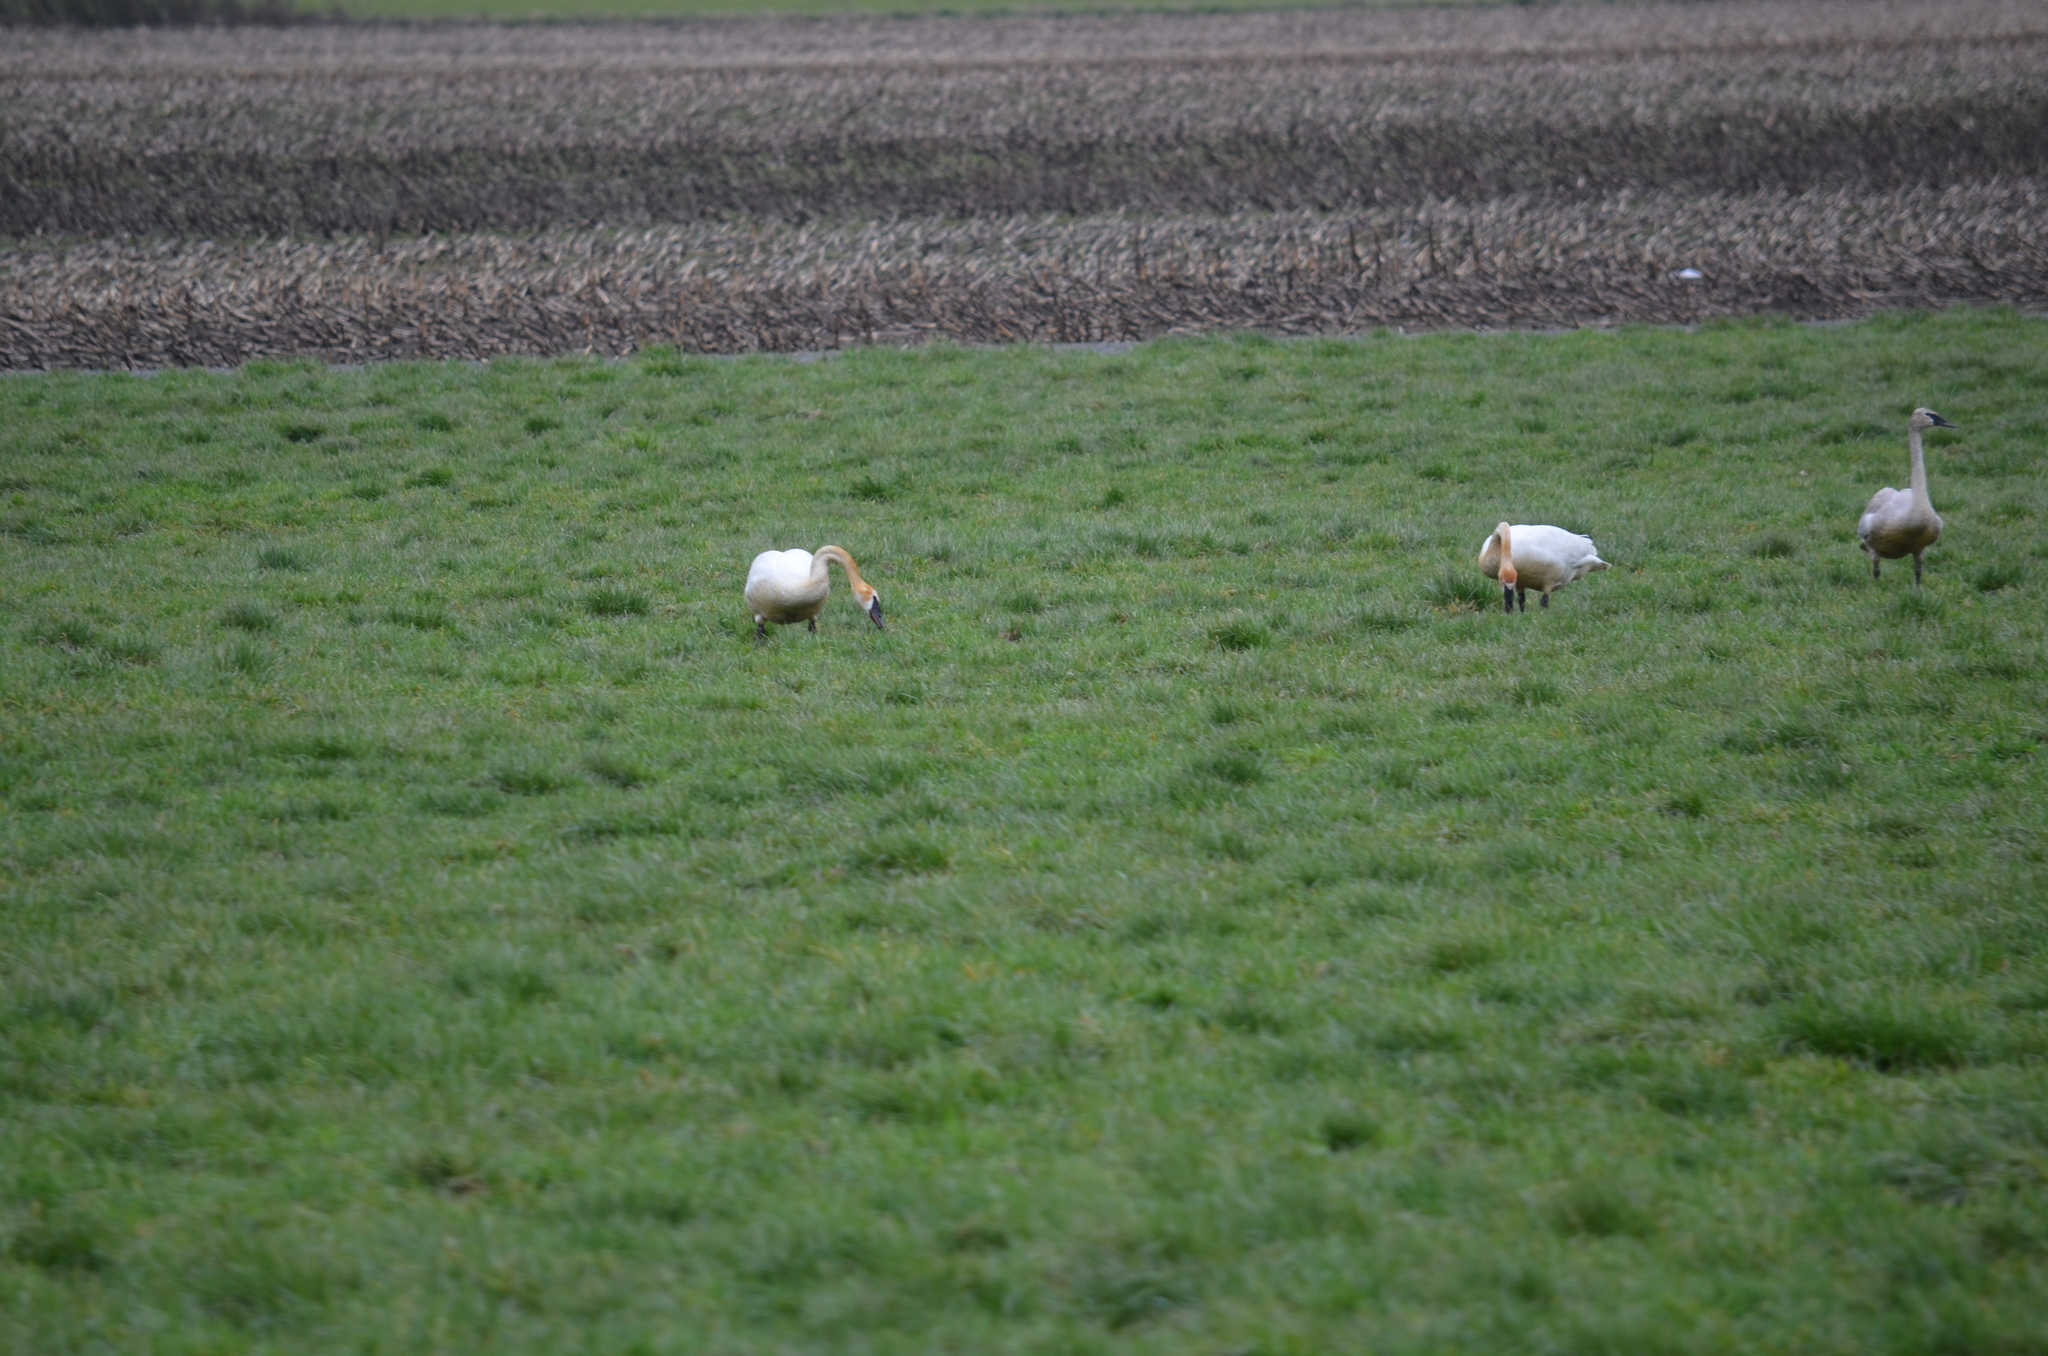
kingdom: Animalia
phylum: Chordata
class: Aves
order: Anseriformes
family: Anatidae
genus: Cygnus
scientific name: Cygnus buccinator
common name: Trumpeter swan
